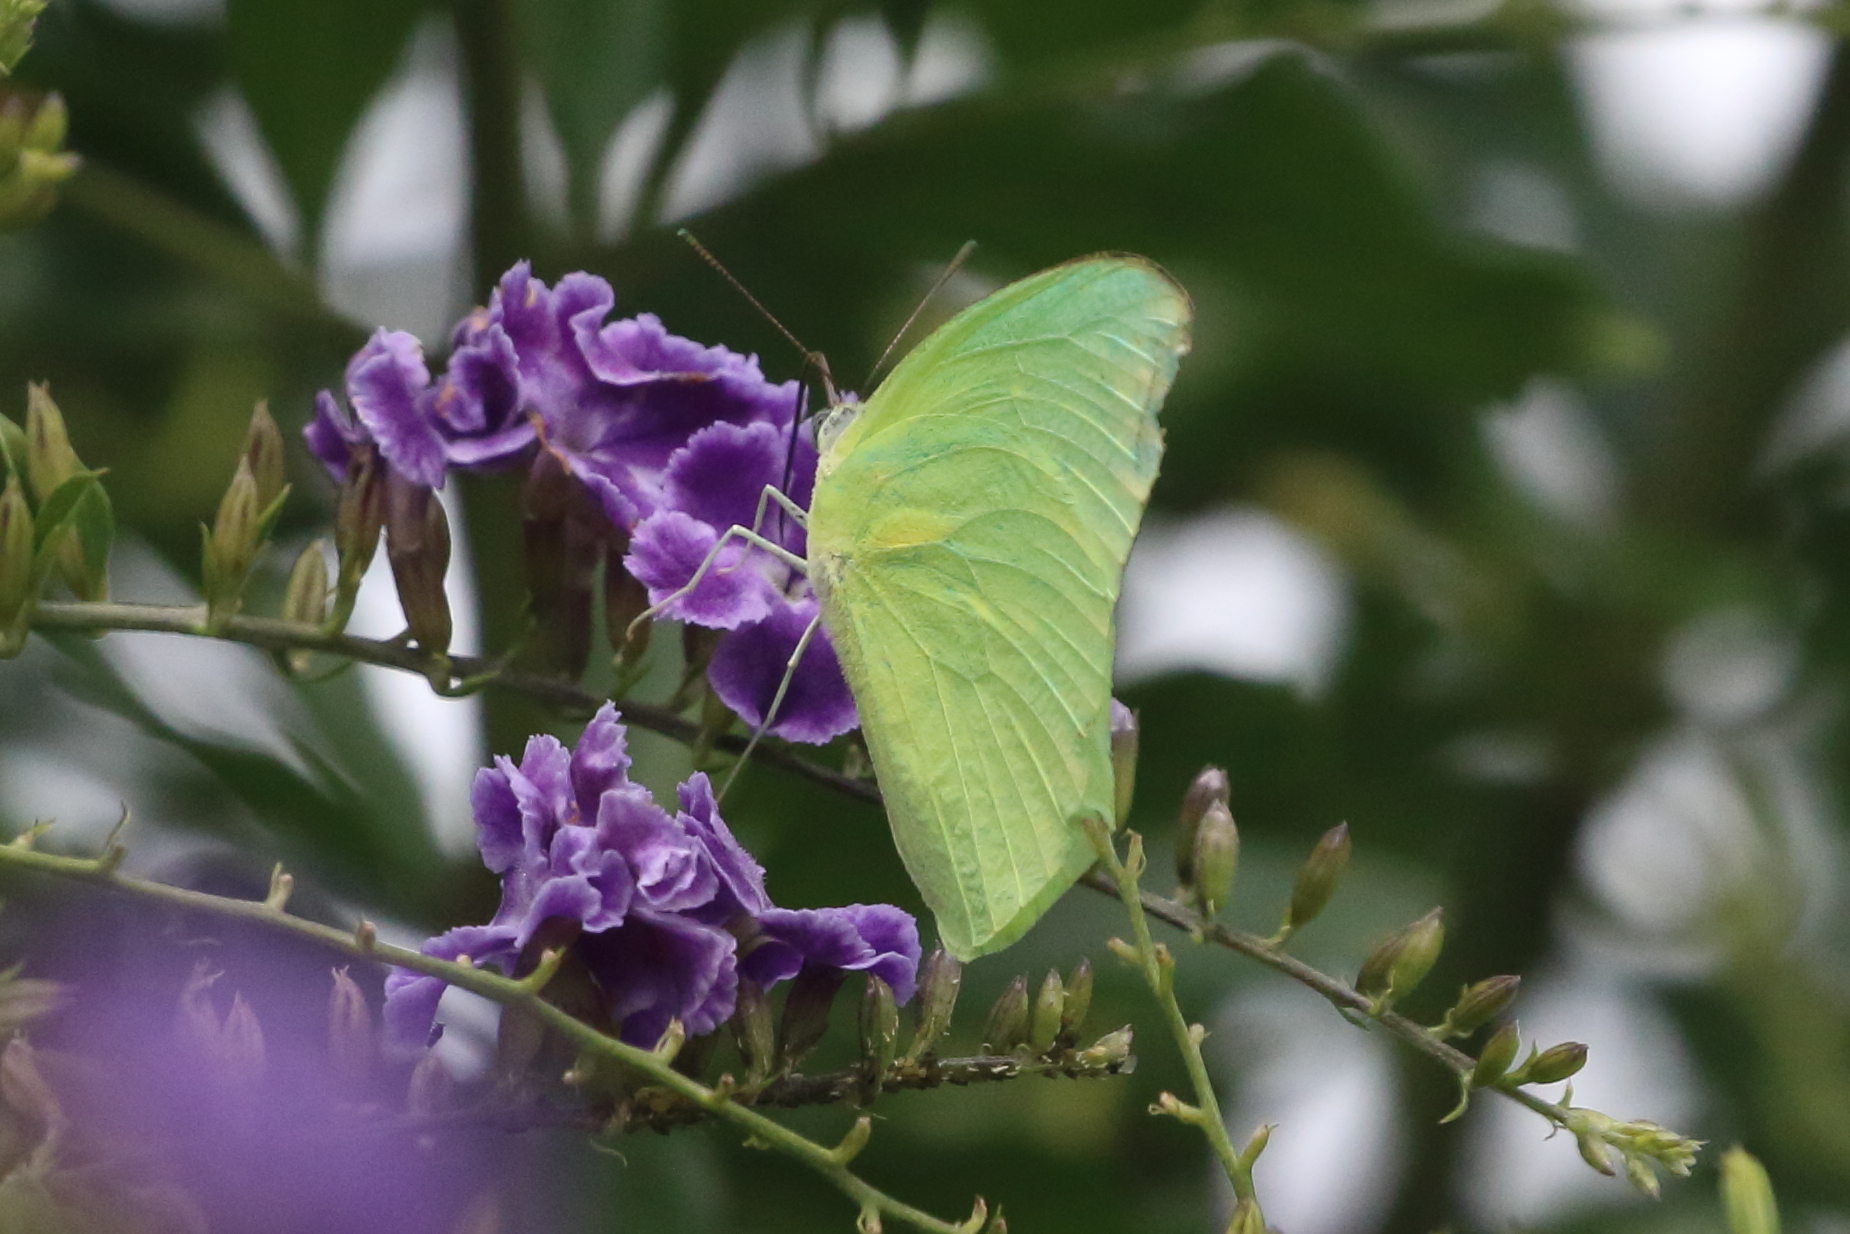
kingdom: Animalia
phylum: Arthropoda
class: Insecta
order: Lepidoptera
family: Pieridae
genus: Catopsilia
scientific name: Catopsilia pomona
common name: Common emigrant
